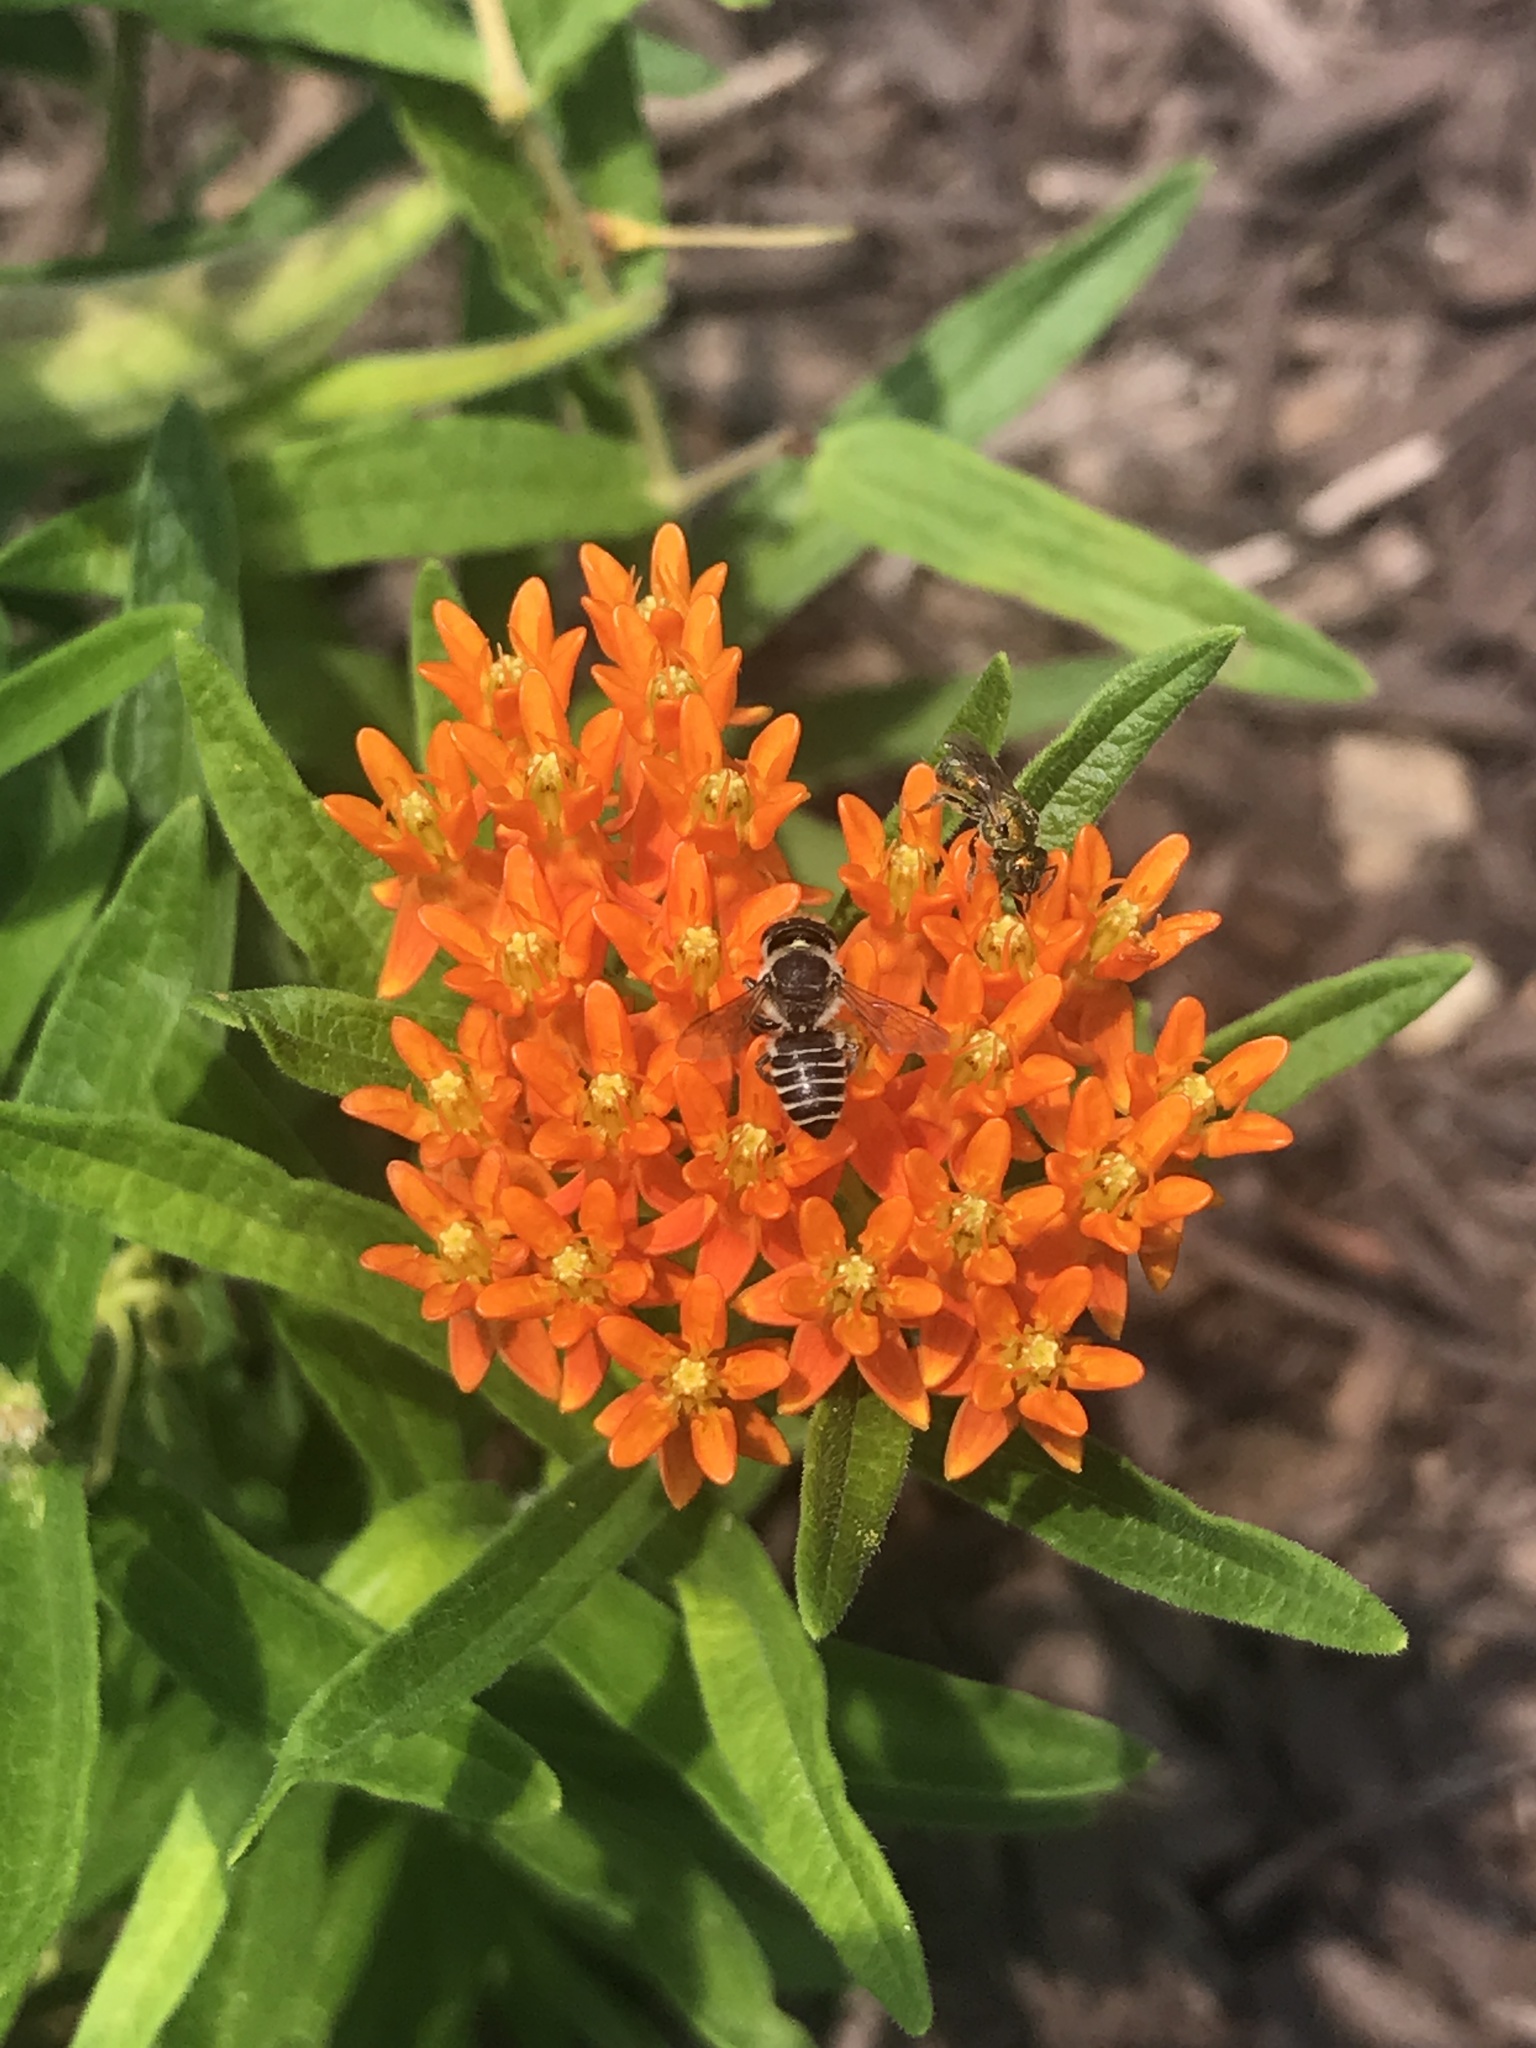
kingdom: Animalia
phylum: Arthropoda
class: Insecta
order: Hymenoptera
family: Megachilidae
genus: Megachile
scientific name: Megachile
